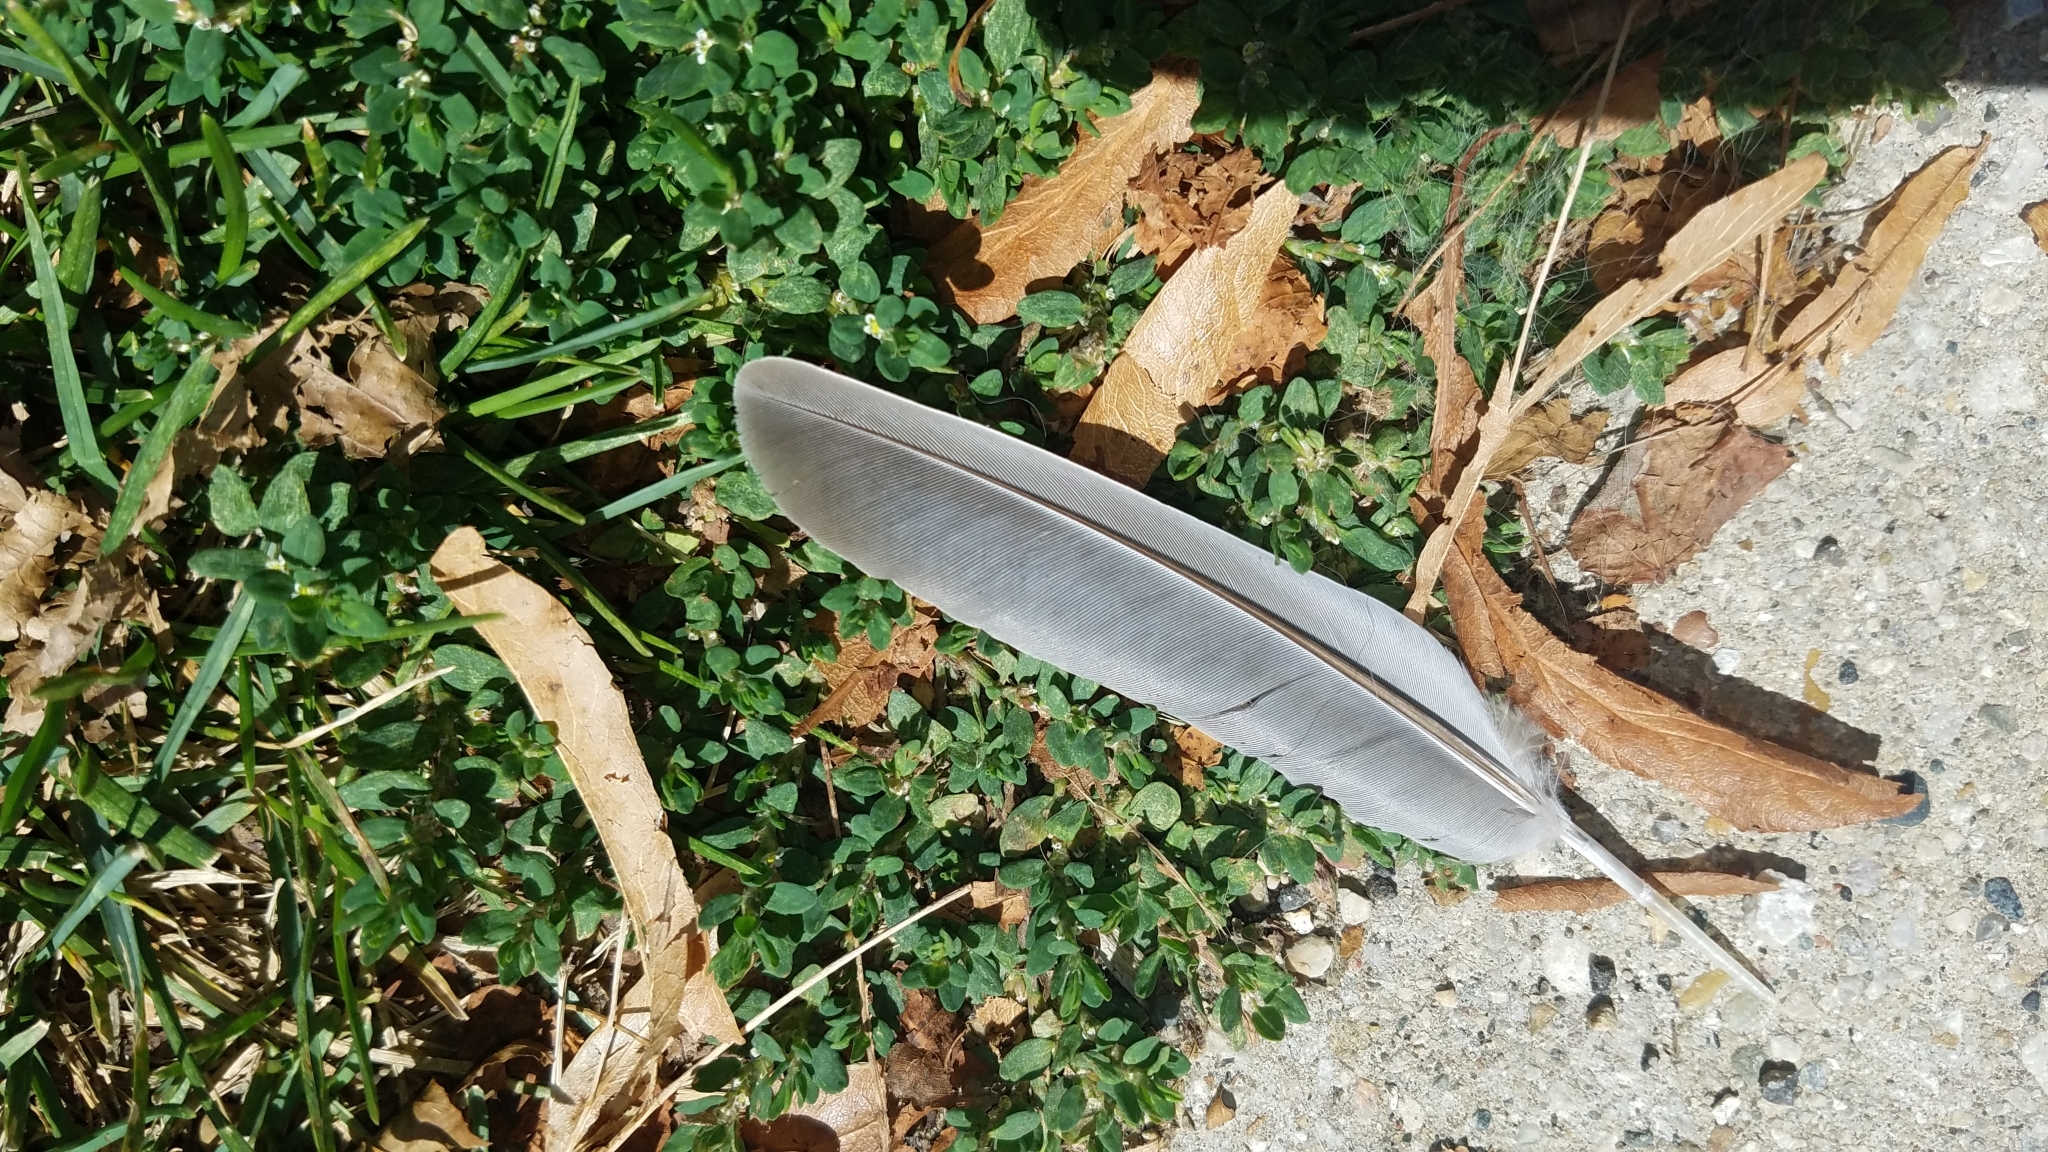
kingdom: Animalia
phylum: Chordata
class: Aves
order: Columbiformes
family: Columbidae
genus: Zenaida
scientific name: Zenaida macroura
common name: Mourning dove
